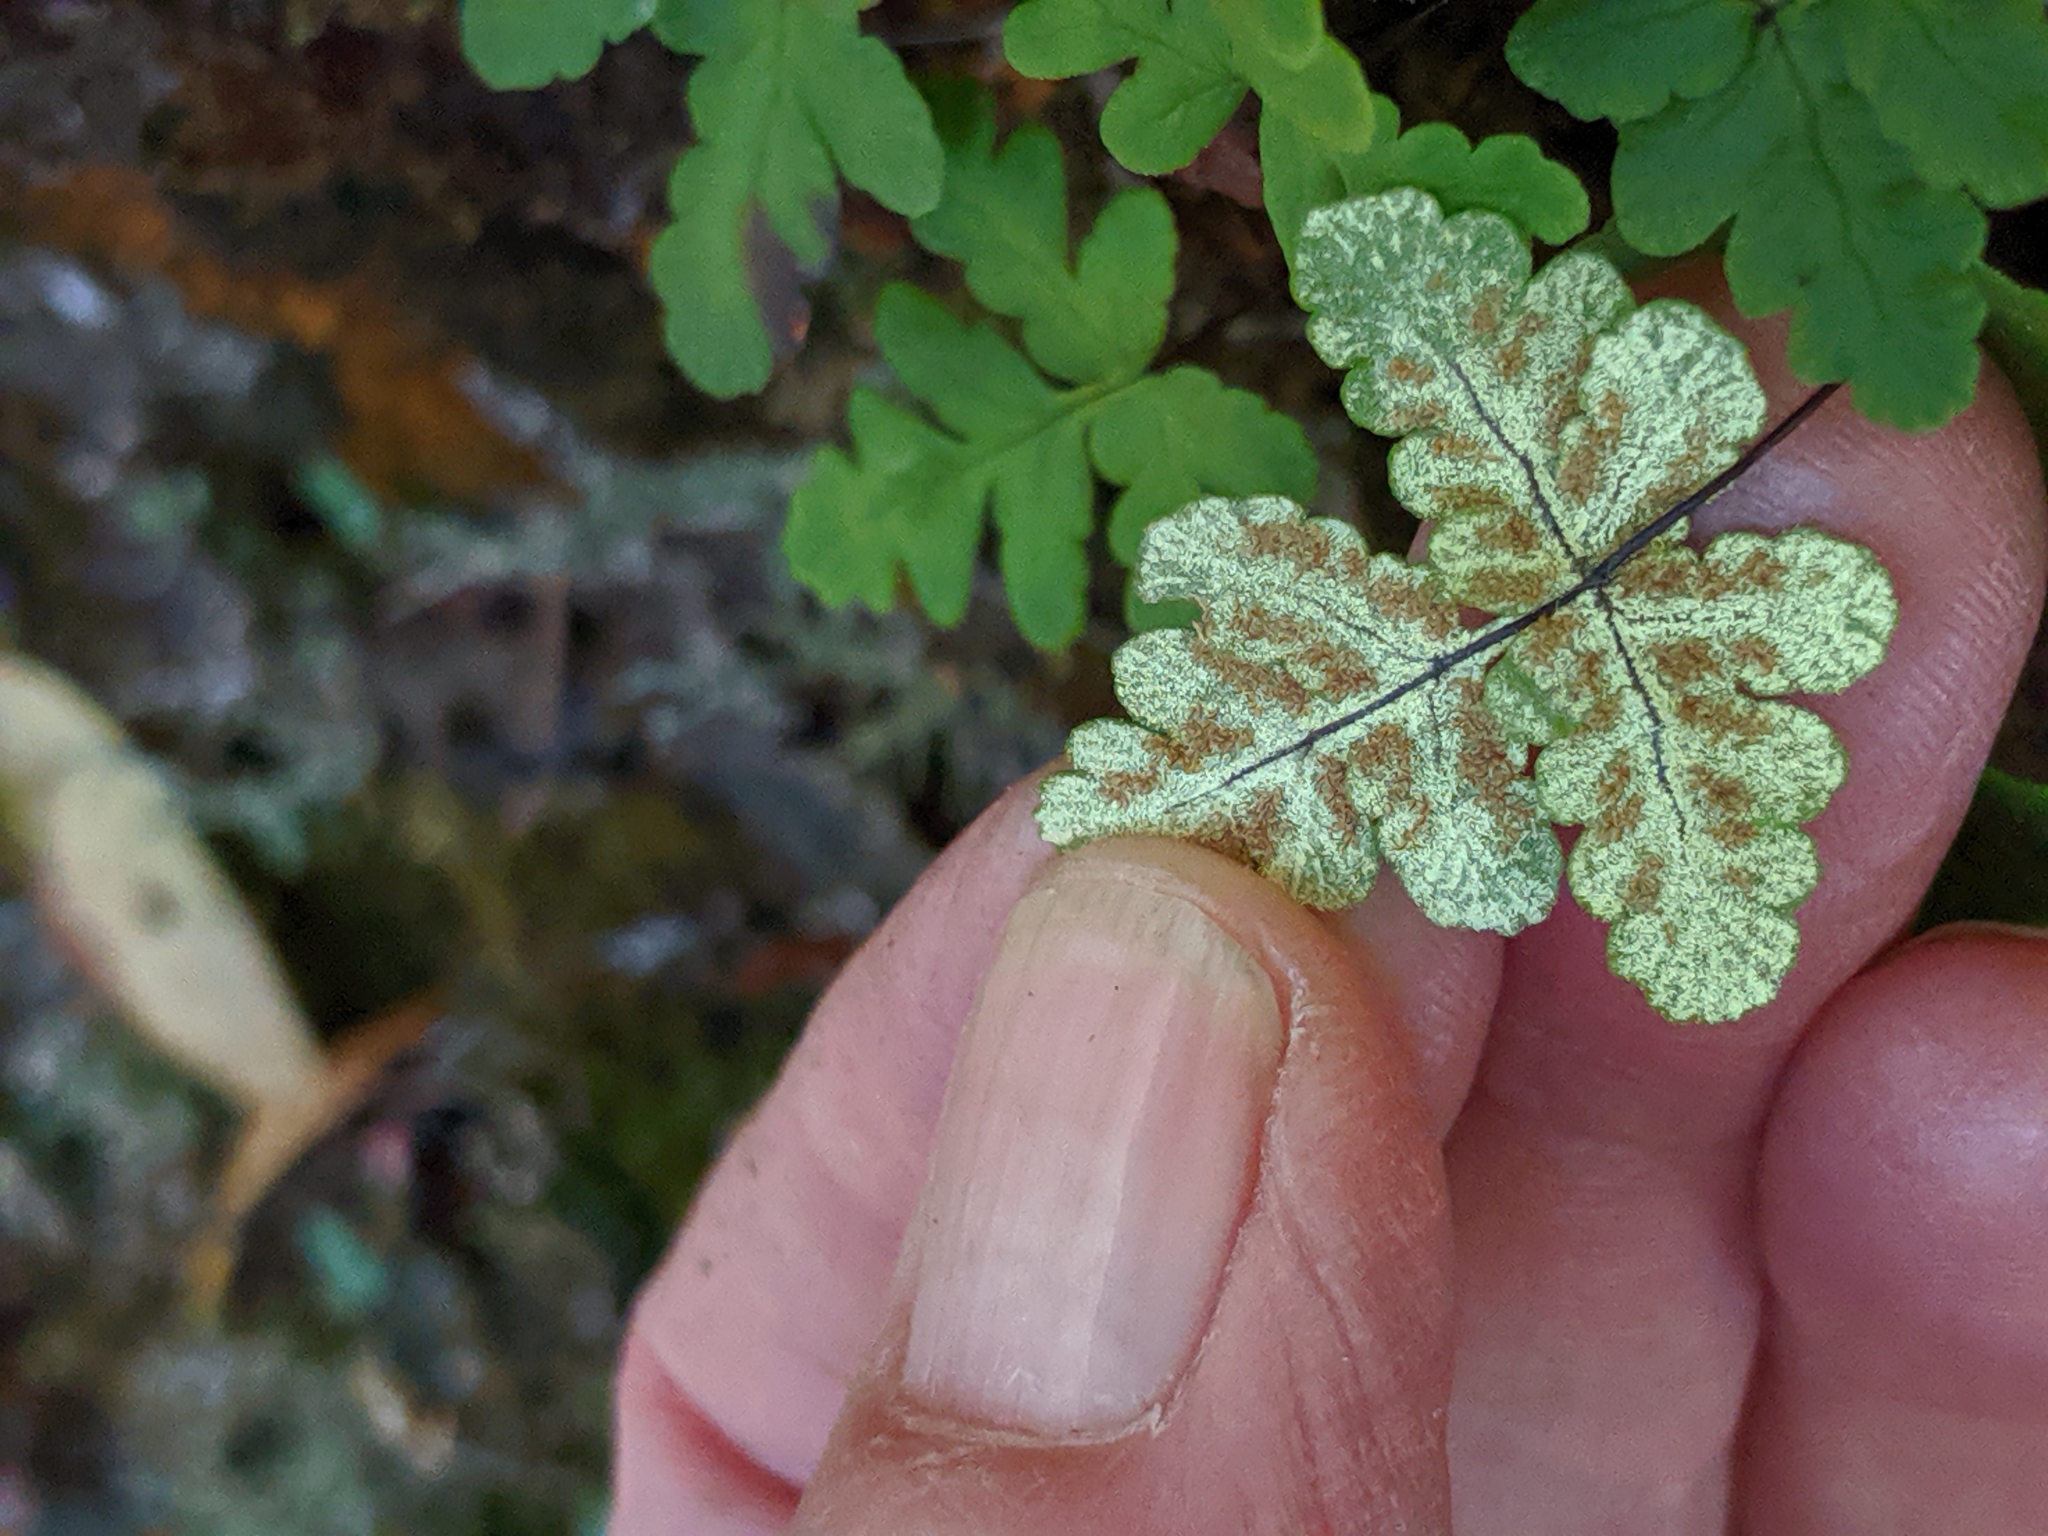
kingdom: Plantae
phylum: Tracheophyta
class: Polypodiopsida
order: Polypodiales
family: Pteridaceae
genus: Pentagramma
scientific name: Pentagramma triangularis
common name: Gold fern
